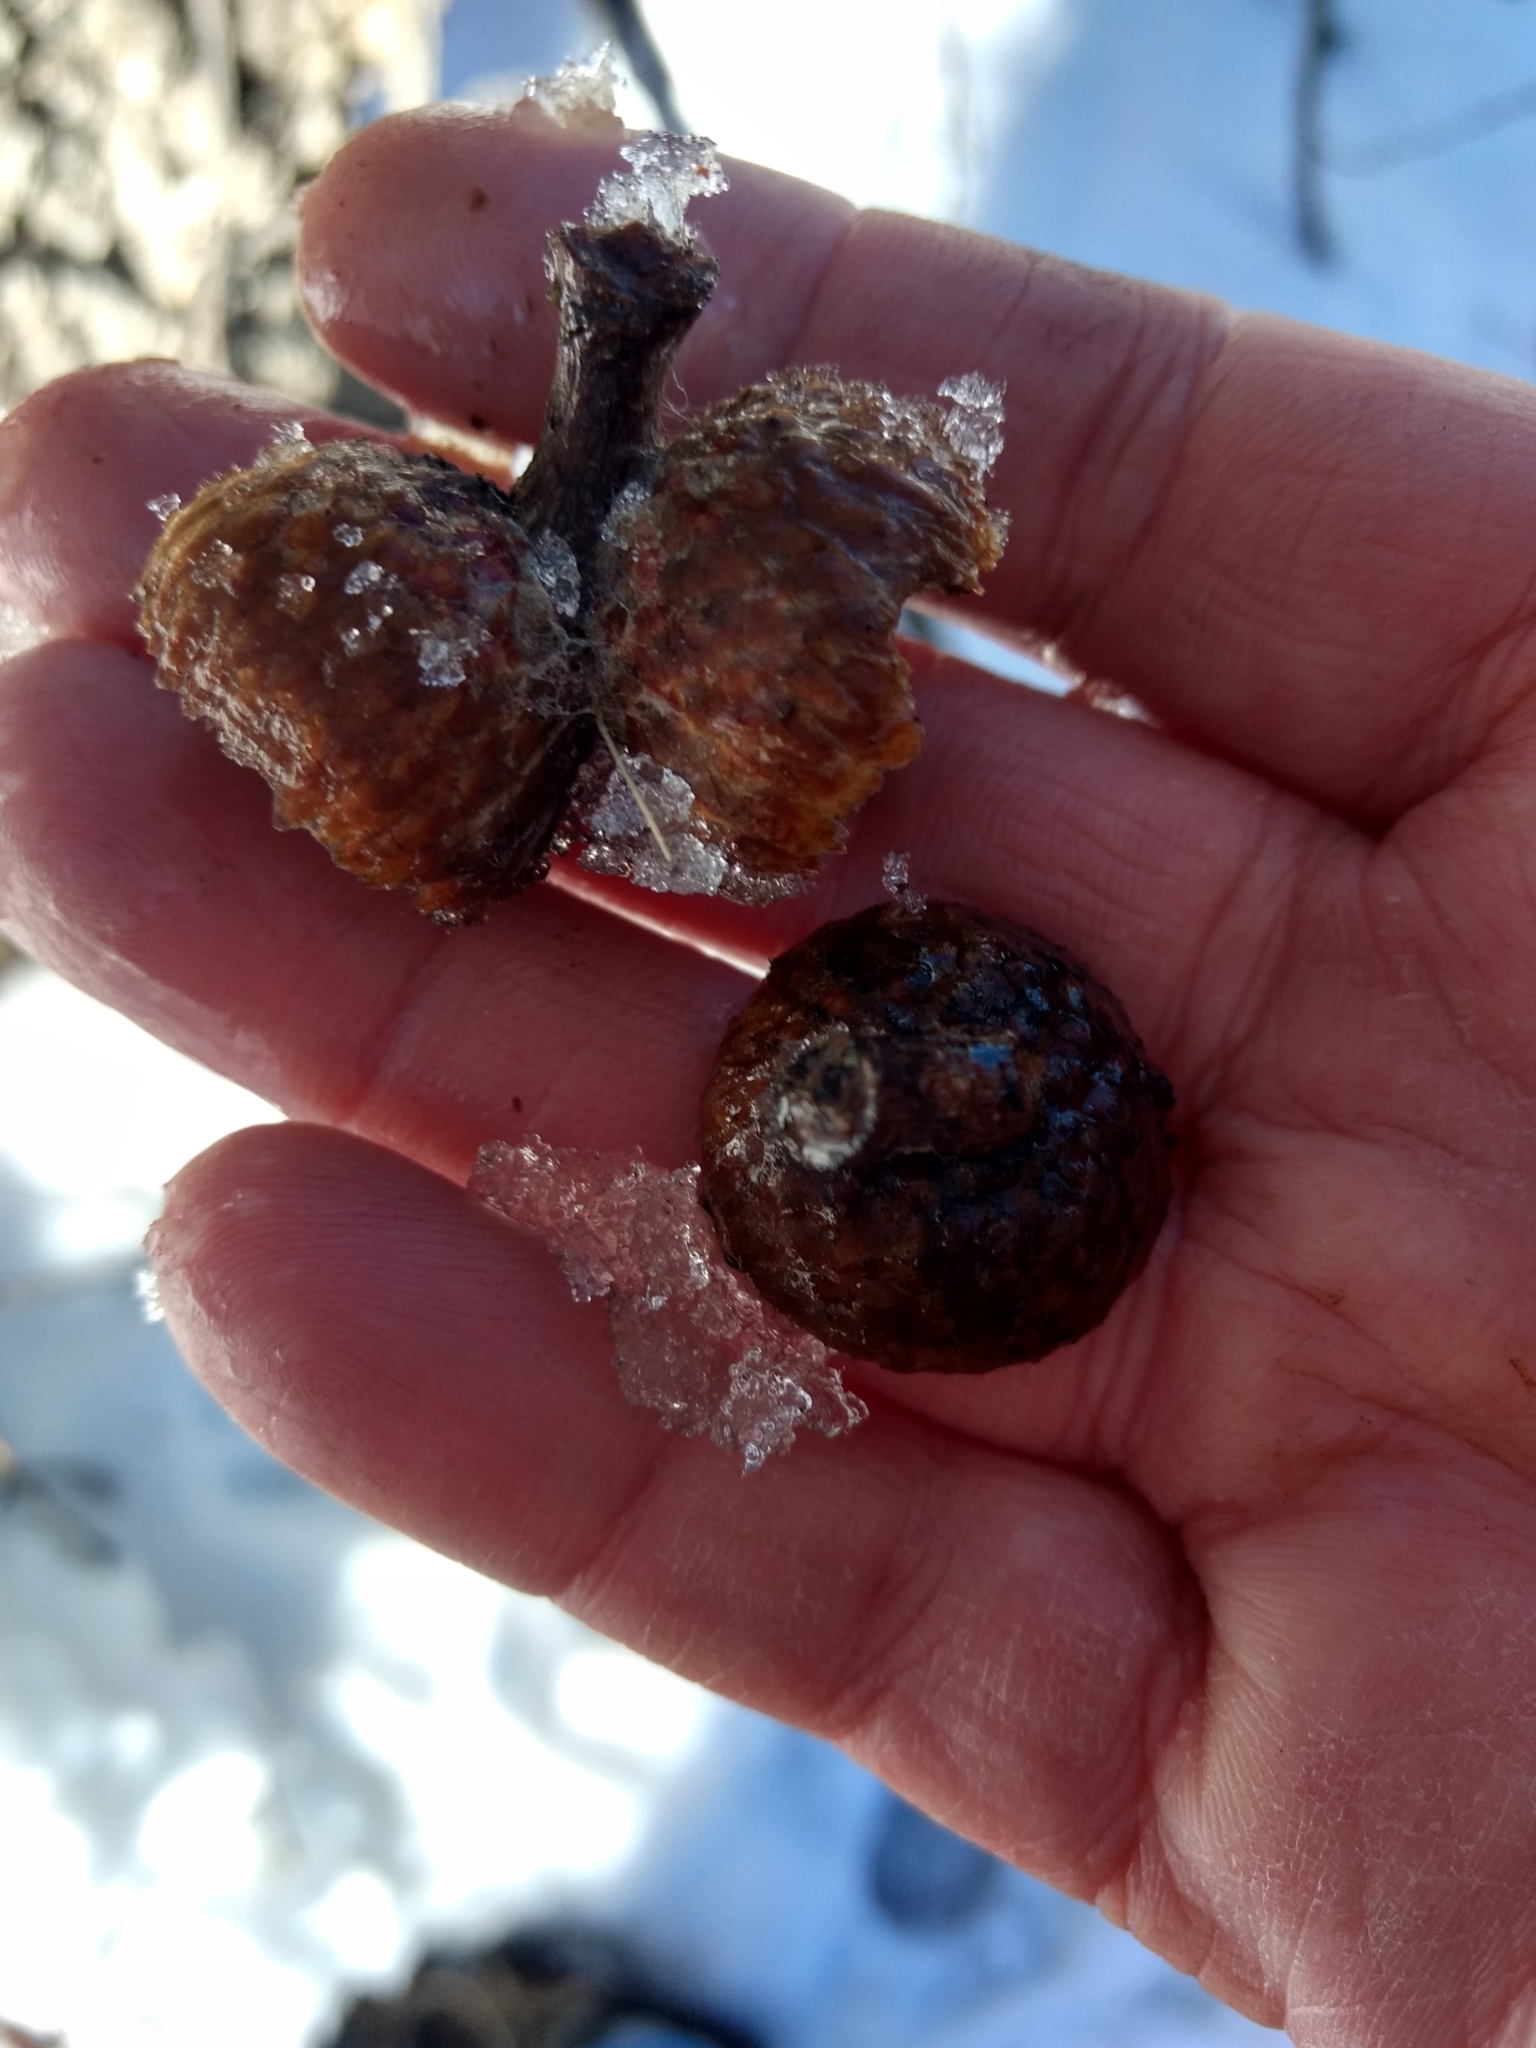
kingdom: Plantae
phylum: Tracheophyta
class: Magnoliopsida
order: Fagales
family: Fagaceae
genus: Quercus
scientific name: Quercus kelloggii
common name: California black oak
